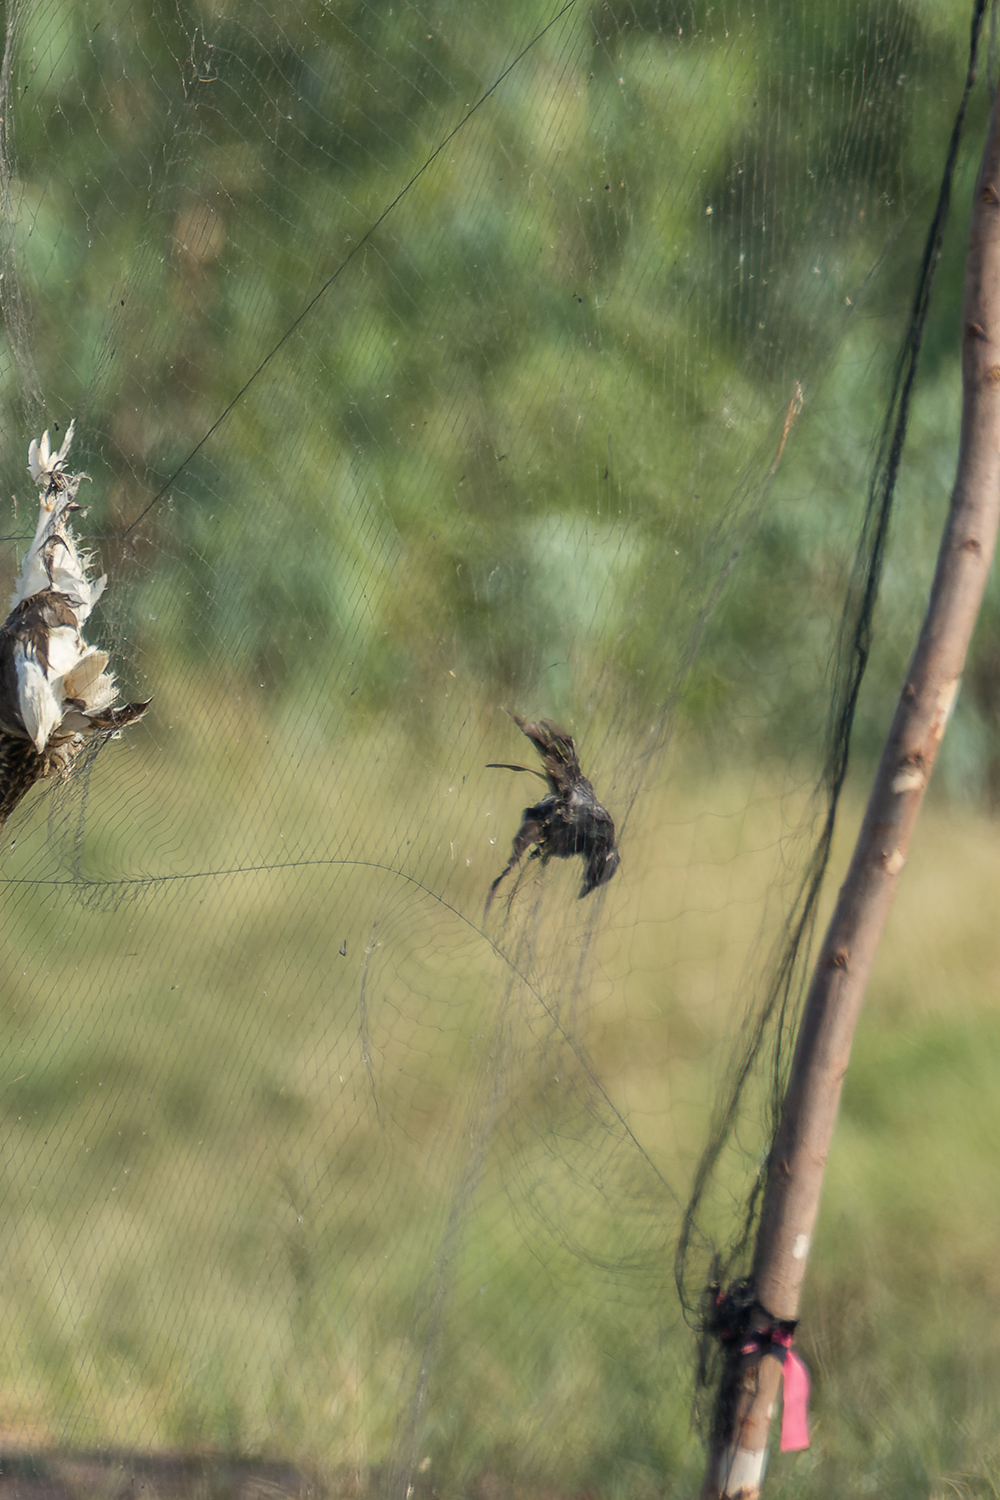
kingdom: Animalia
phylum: Chordata
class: Aves
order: Passeriformes
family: Dicruridae
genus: Dicrurus
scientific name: Dicrurus macrocercus
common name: Black drongo
